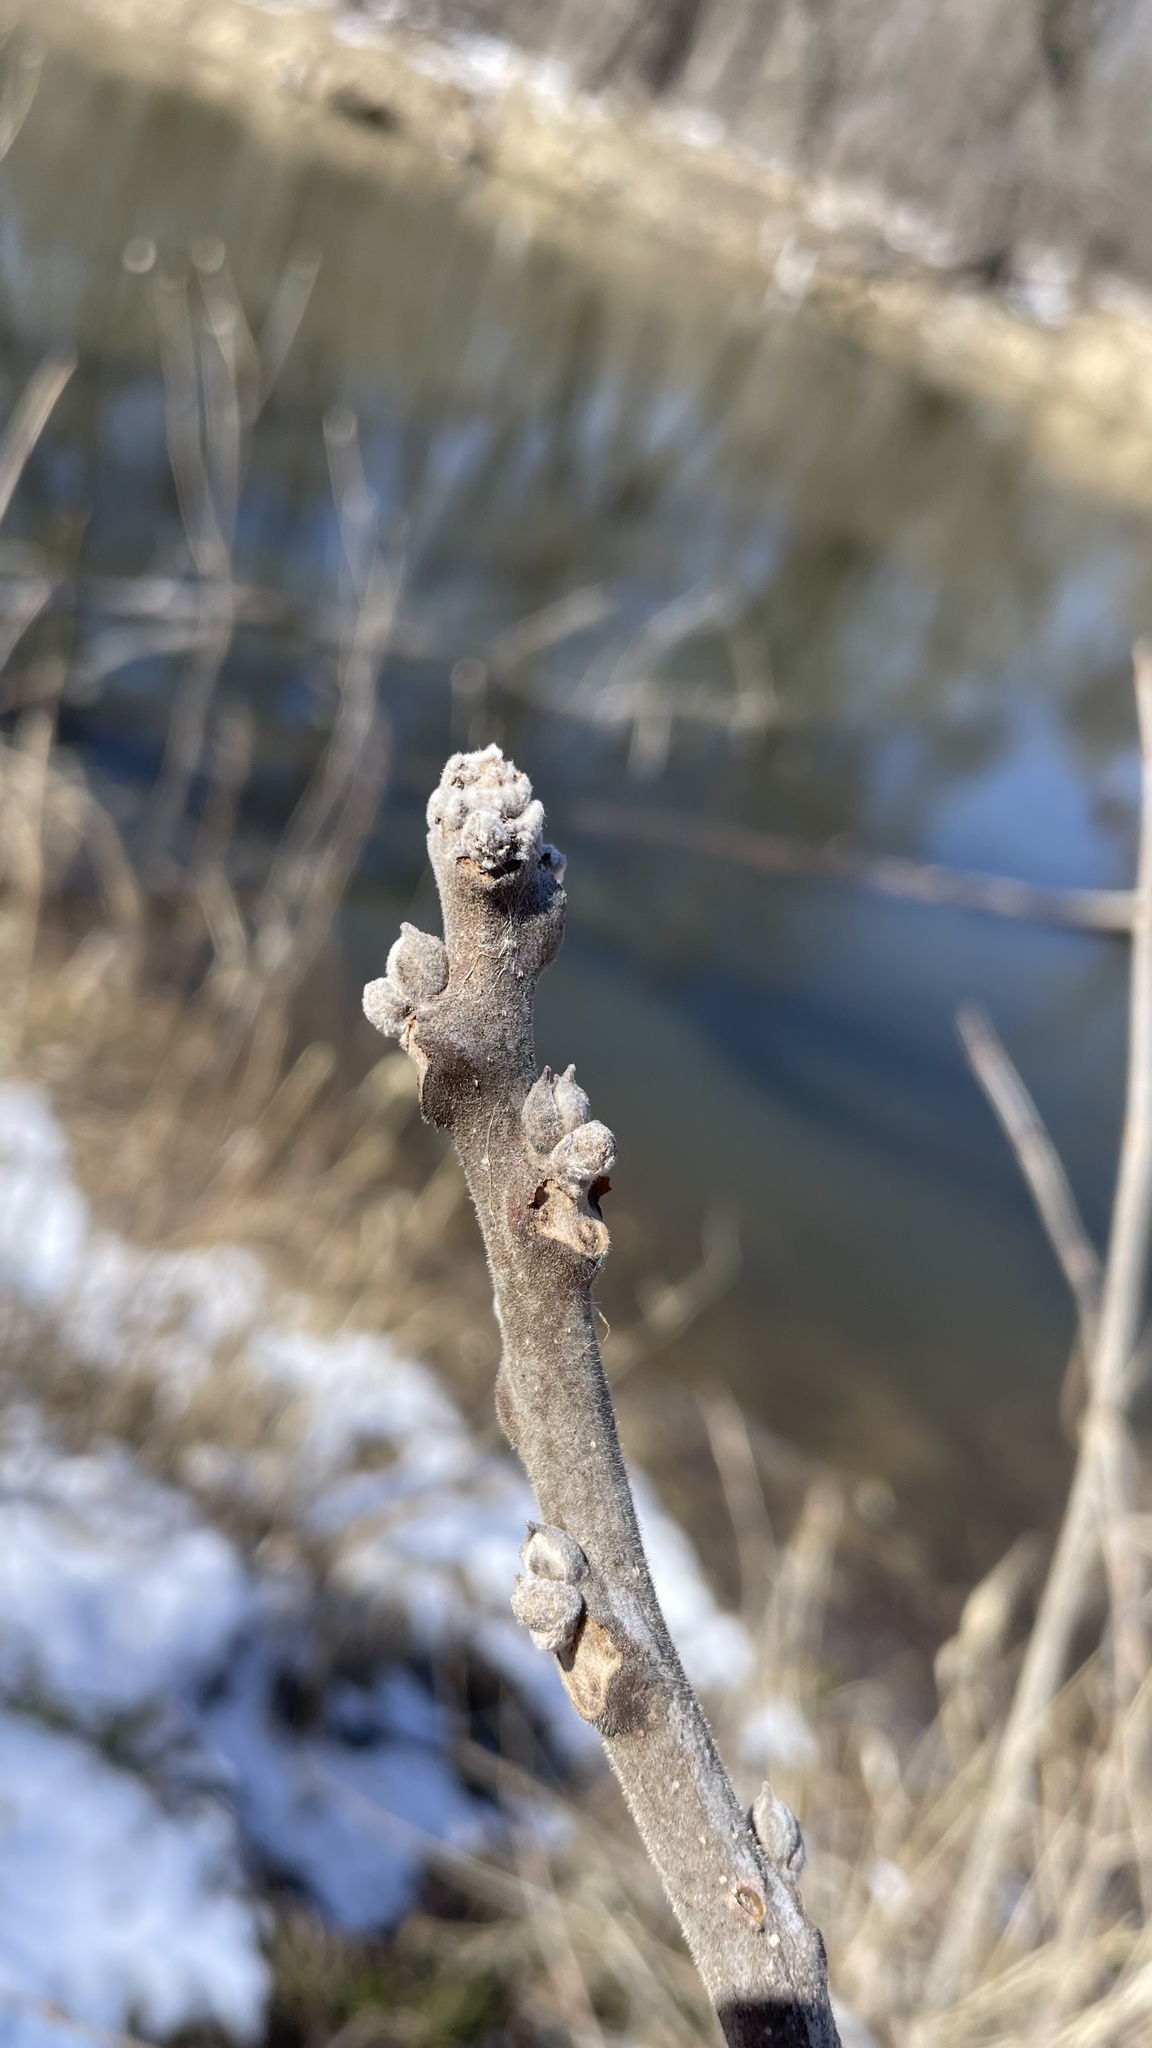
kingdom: Plantae
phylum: Tracheophyta
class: Magnoliopsida
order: Fagales
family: Juglandaceae
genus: Juglans
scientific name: Juglans nigra
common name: Black walnut
